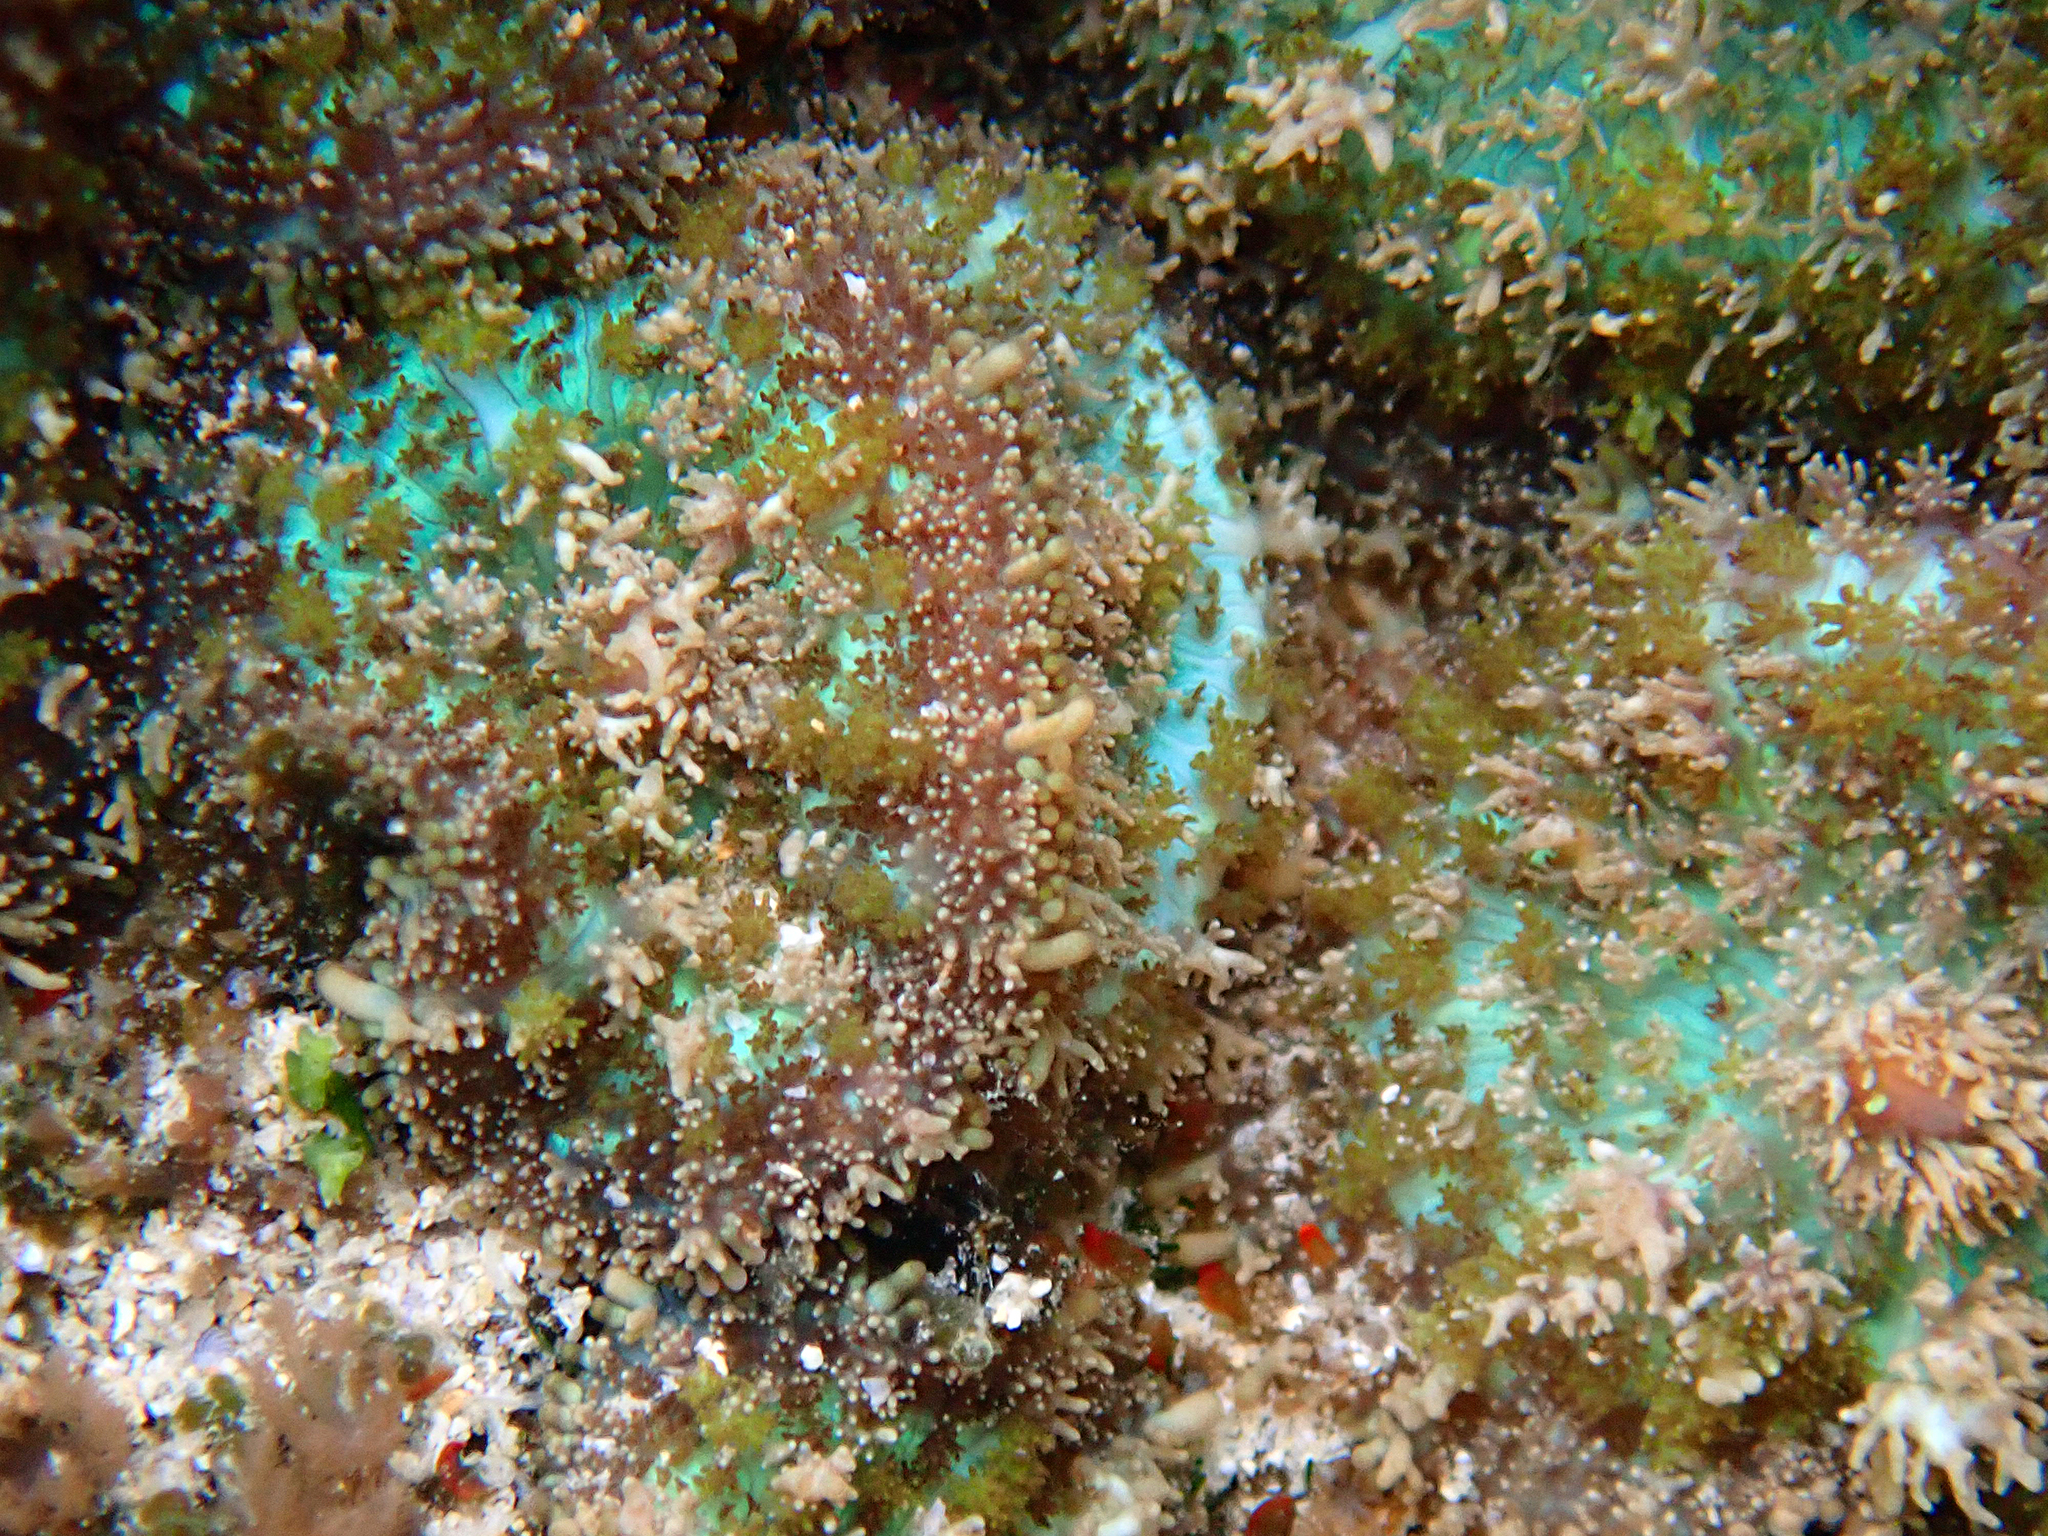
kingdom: Animalia
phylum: Cnidaria
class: Anthozoa
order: Corallimorpharia
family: Discosomidae
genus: Rhodactis
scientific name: Rhodactis bryoides
